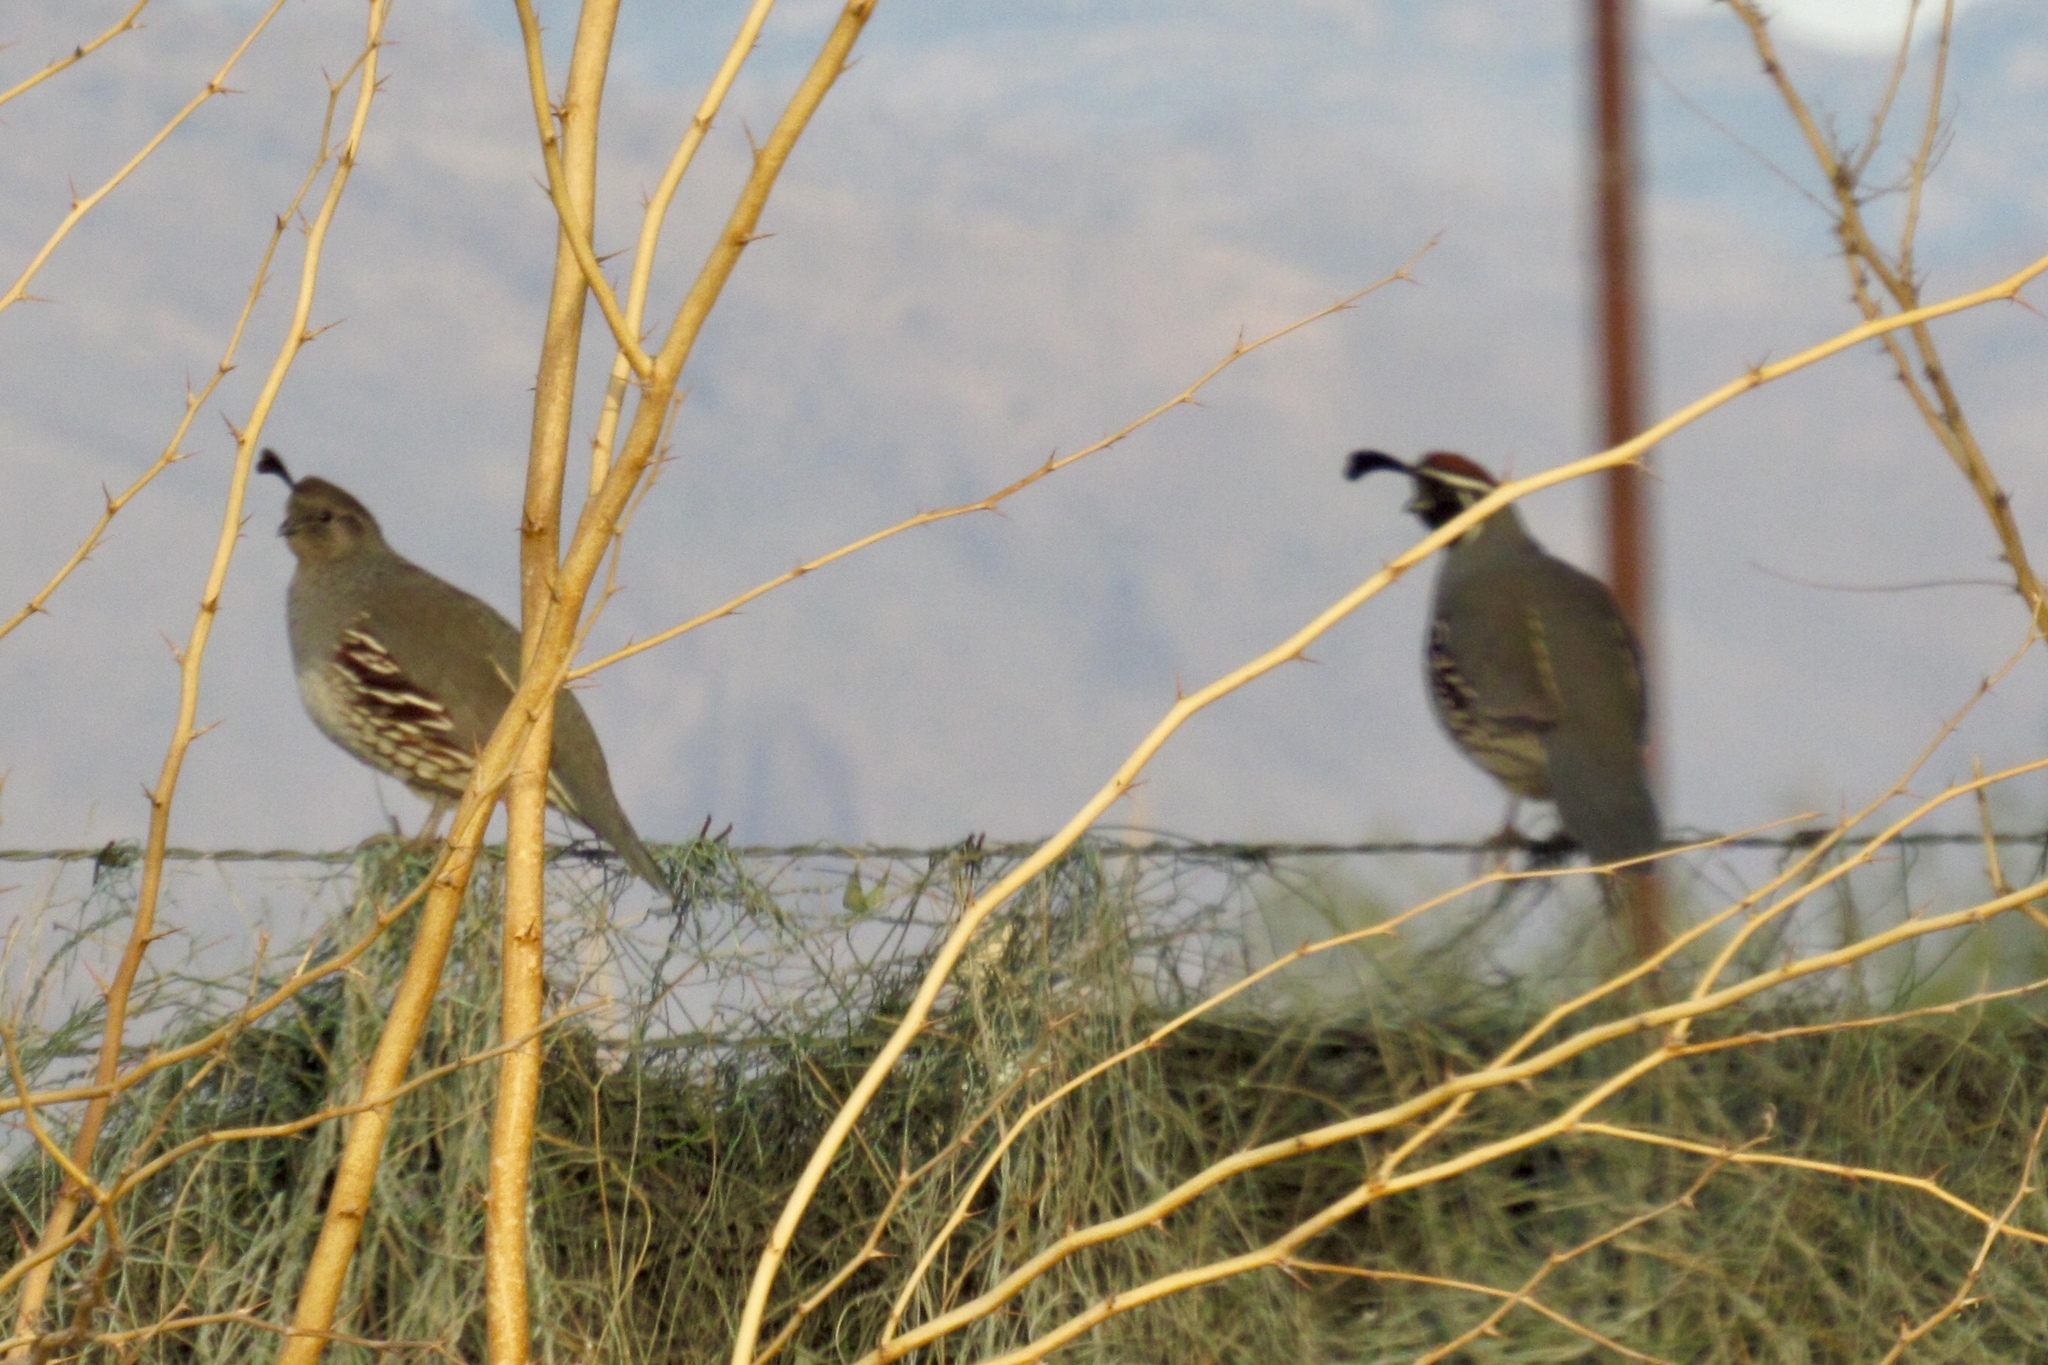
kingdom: Animalia
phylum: Chordata
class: Aves
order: Galliformes
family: Odontophoridae
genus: Callipepla
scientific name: Callipepla gambelii
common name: Gambel's quail
